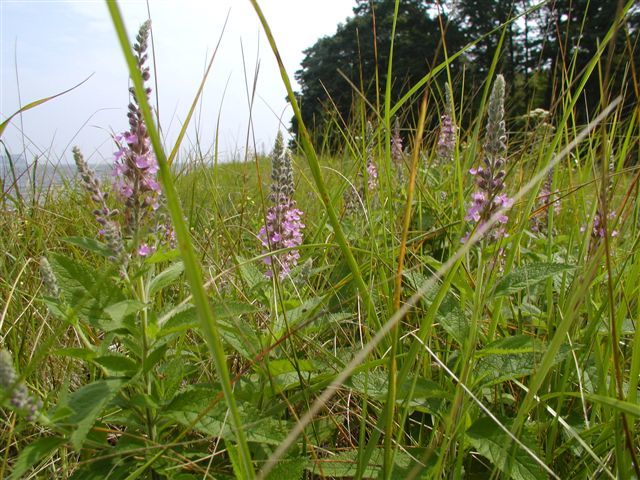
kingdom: Plantae
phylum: Tracheophyta
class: Magnoliopsida
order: Lamiales
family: Lamiaceae
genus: Teucrium
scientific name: Teucrium canadense
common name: American germander
